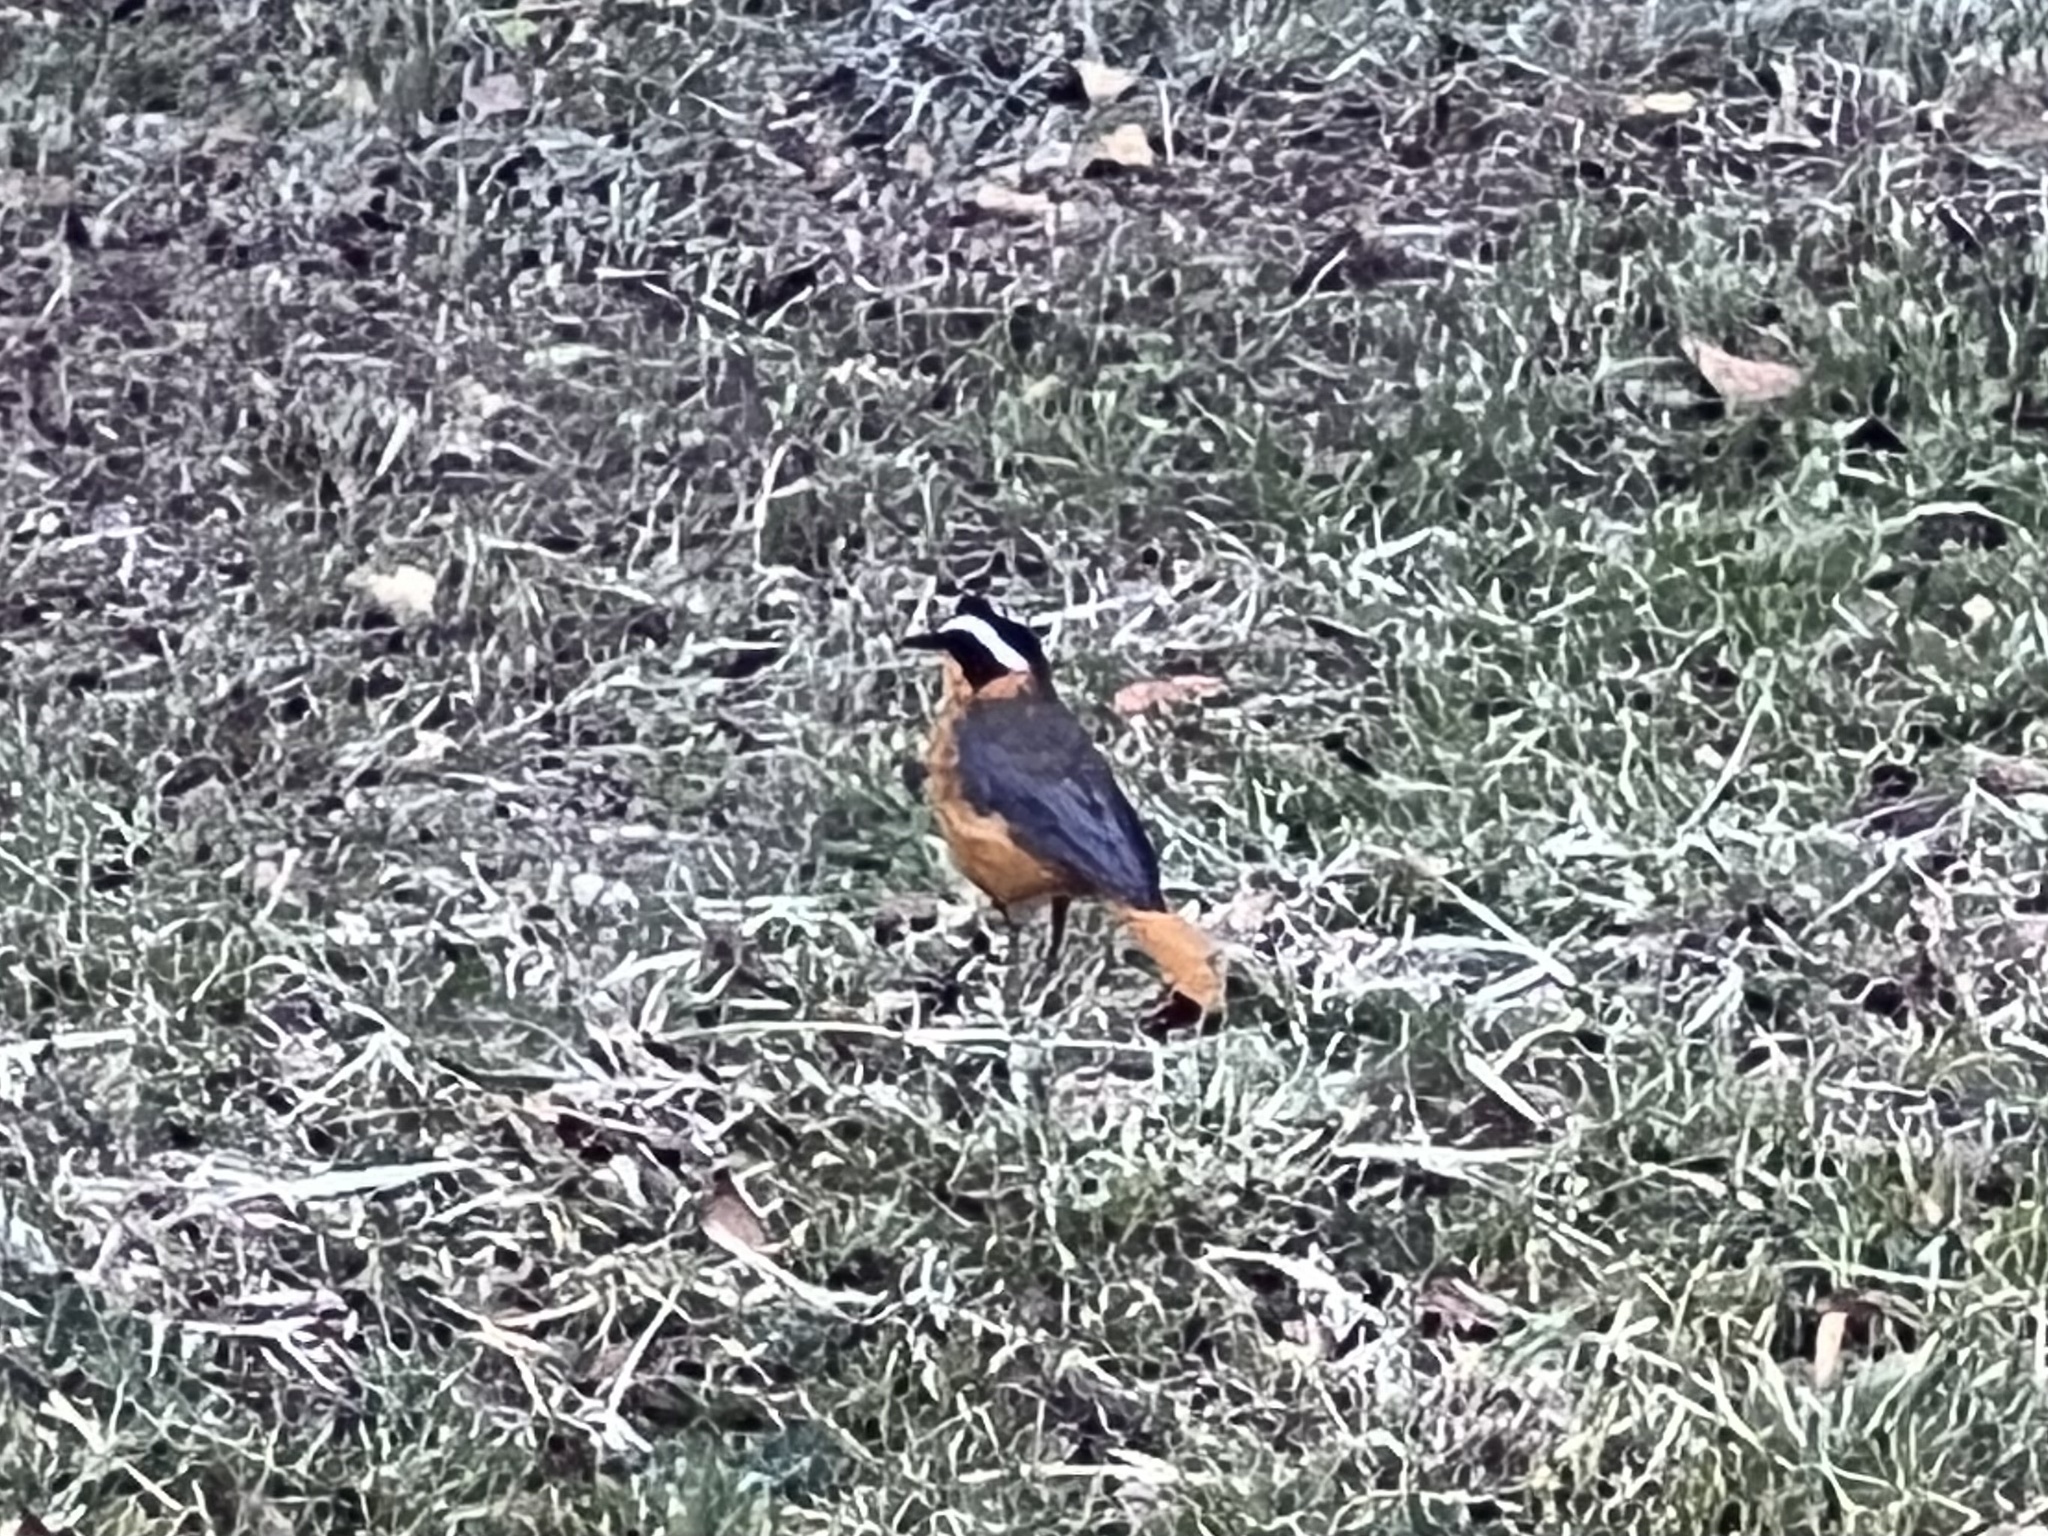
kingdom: Animalia
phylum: Chordata
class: Aves
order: Passeriformes
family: Muscicapidae
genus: Cossypha
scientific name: Cossypha heuglini
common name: White-browed robin-chat
